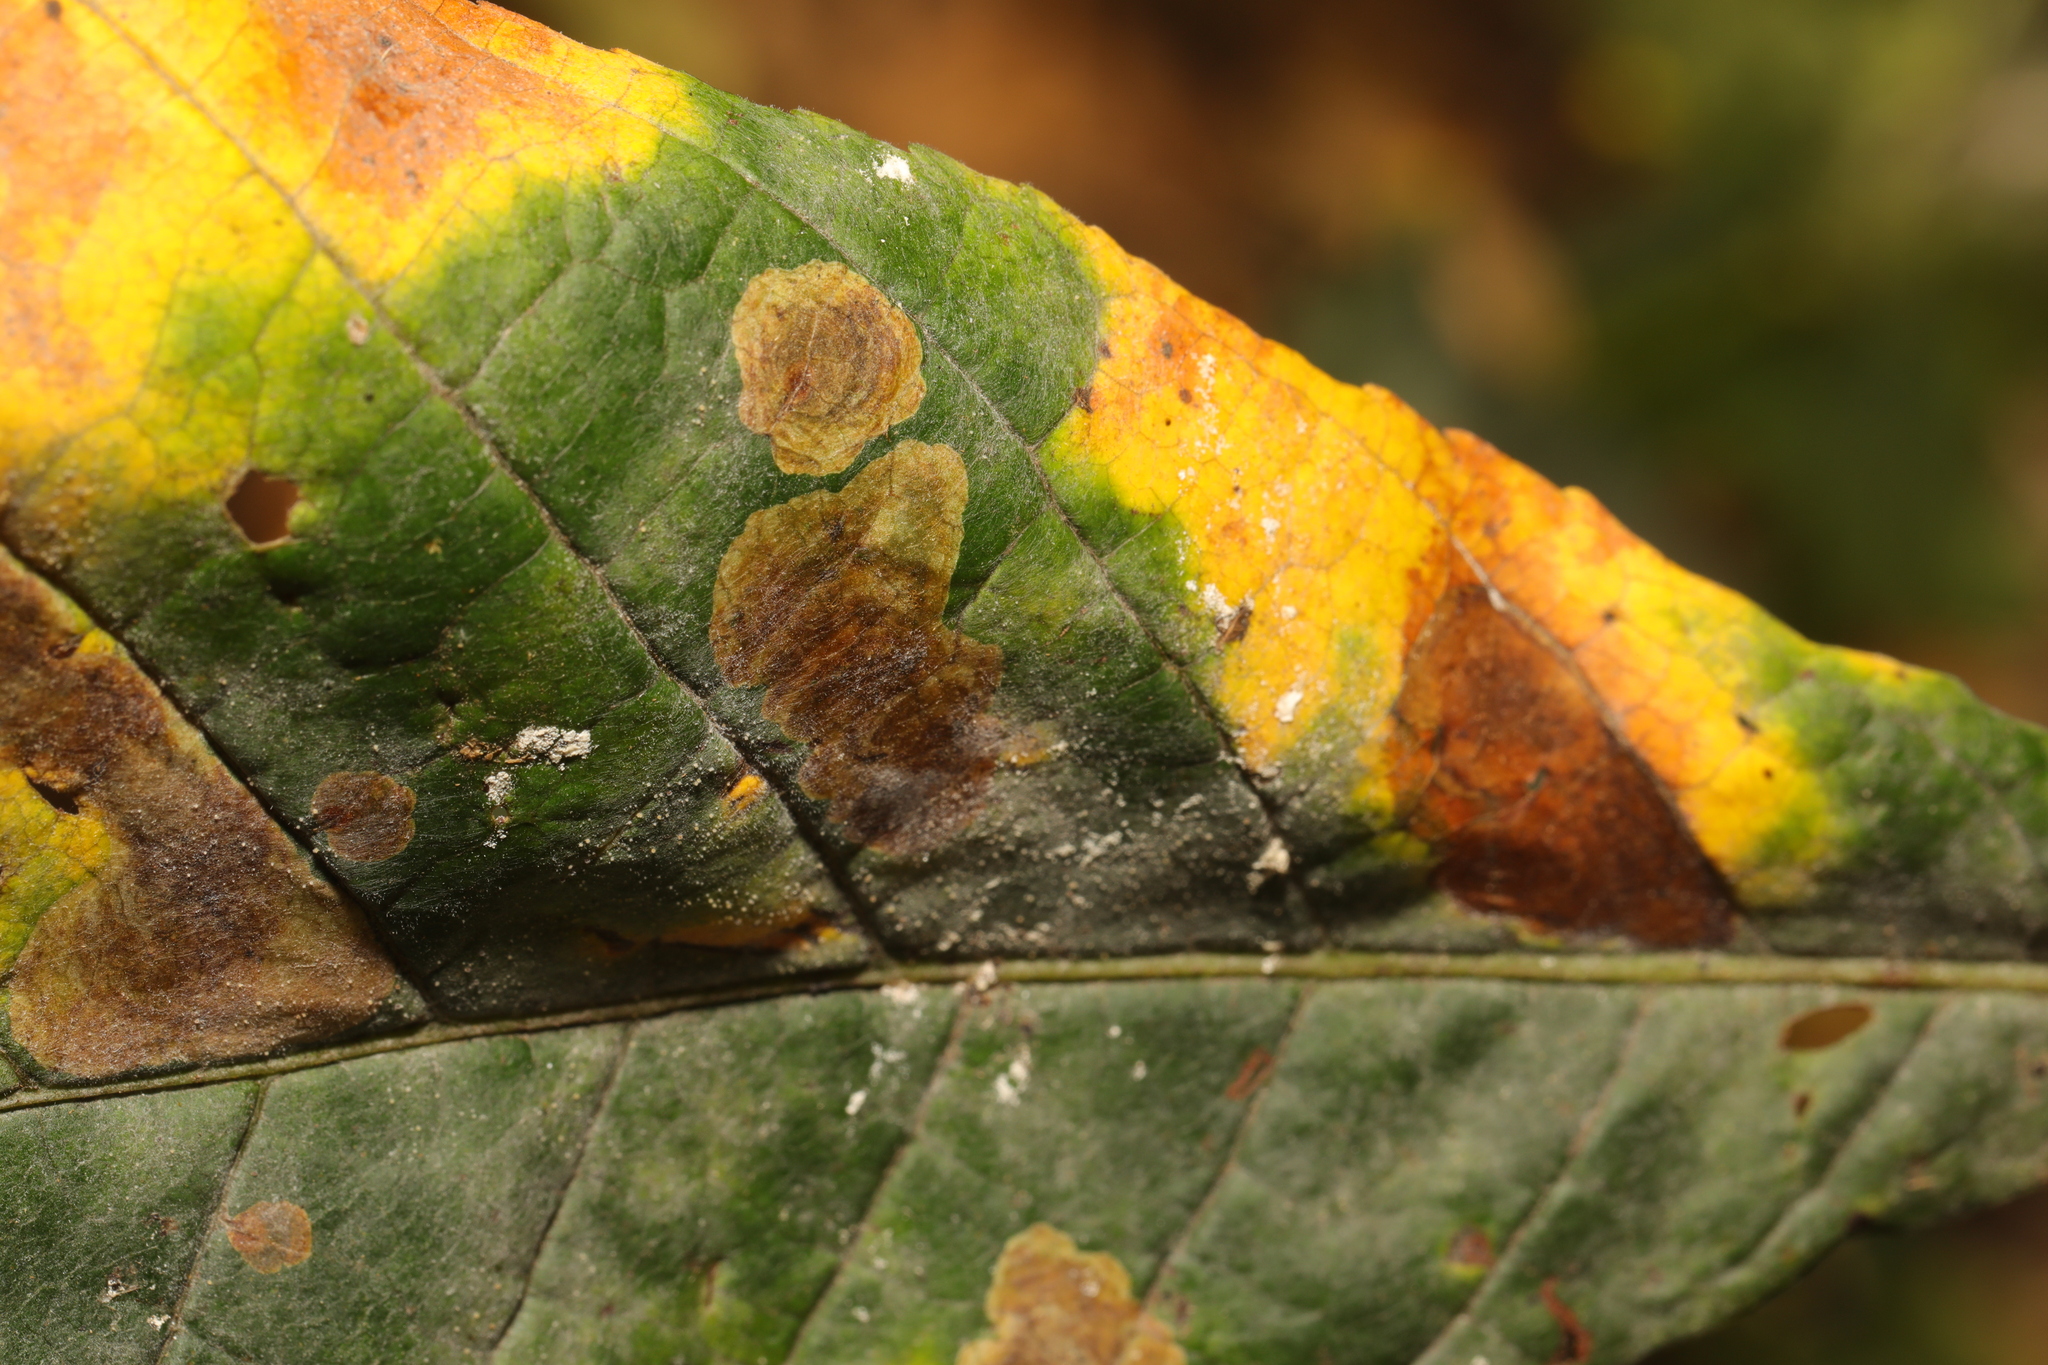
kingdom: Animalia
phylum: Arthropoda
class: Insecta
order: Lepidoptera
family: Gracillariidae
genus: Cameraria
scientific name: Cameraria ohridella
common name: Horse-chestnut leaf-miner
